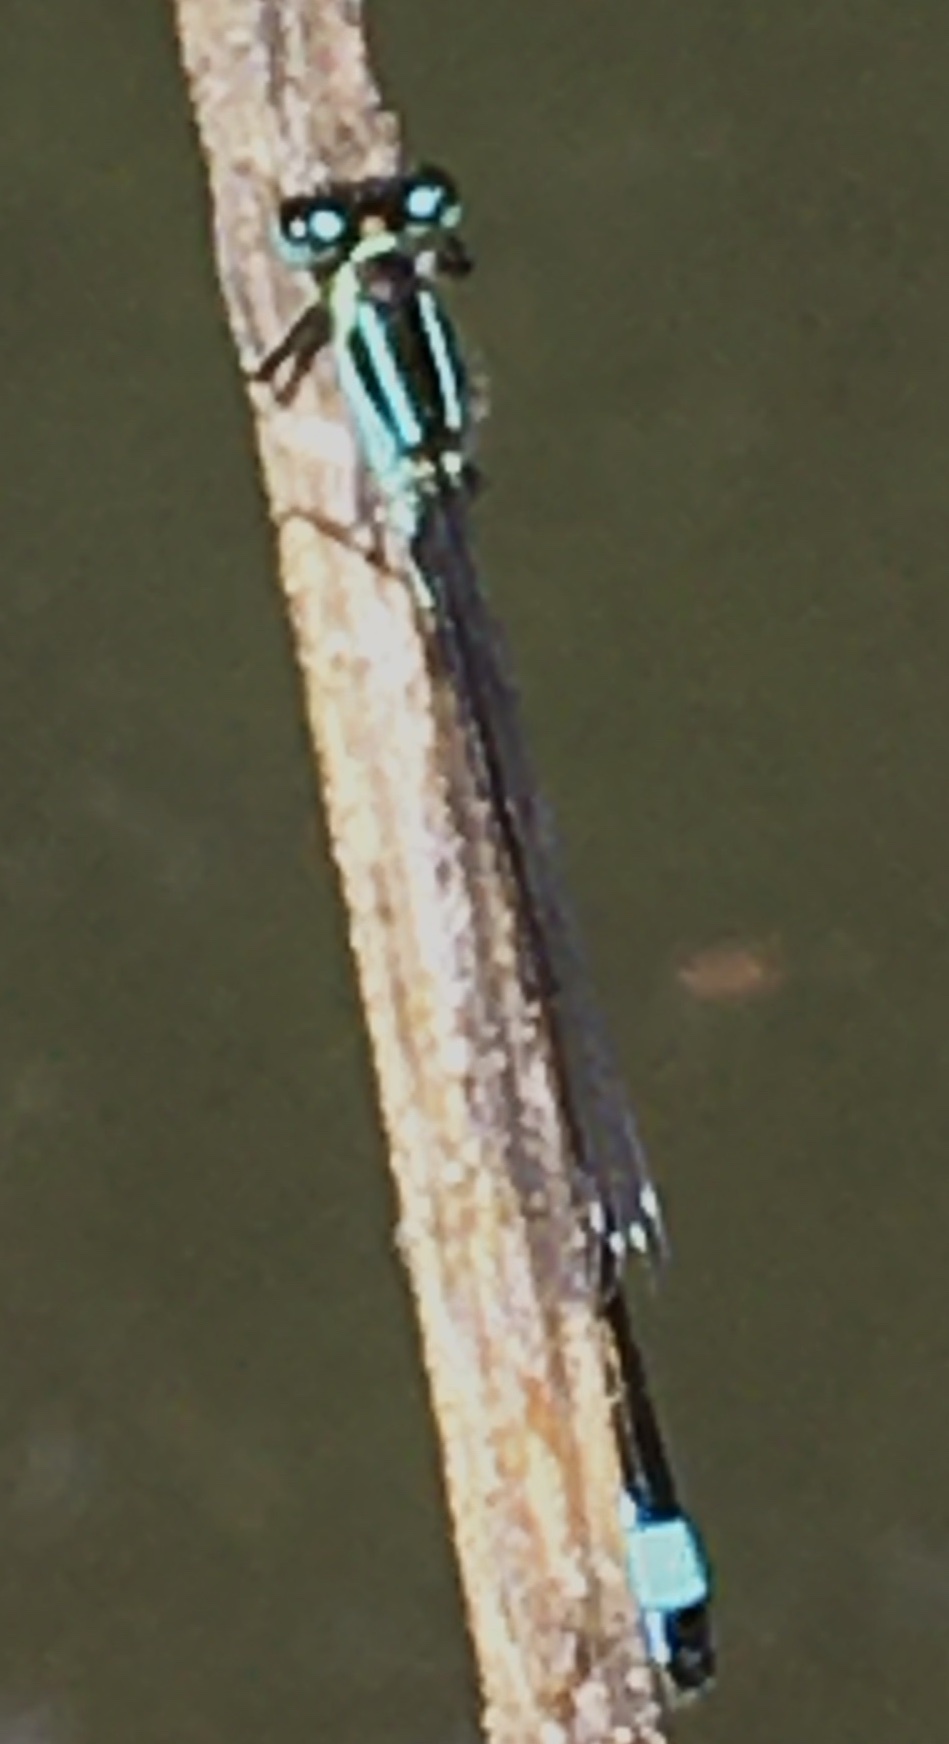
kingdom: Animalia
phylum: Arthropoda
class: Insecta
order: Odonata
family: Coenagrionidae
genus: Ischnura
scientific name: Ischnura elegans
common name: Blue-tailed damselfly
